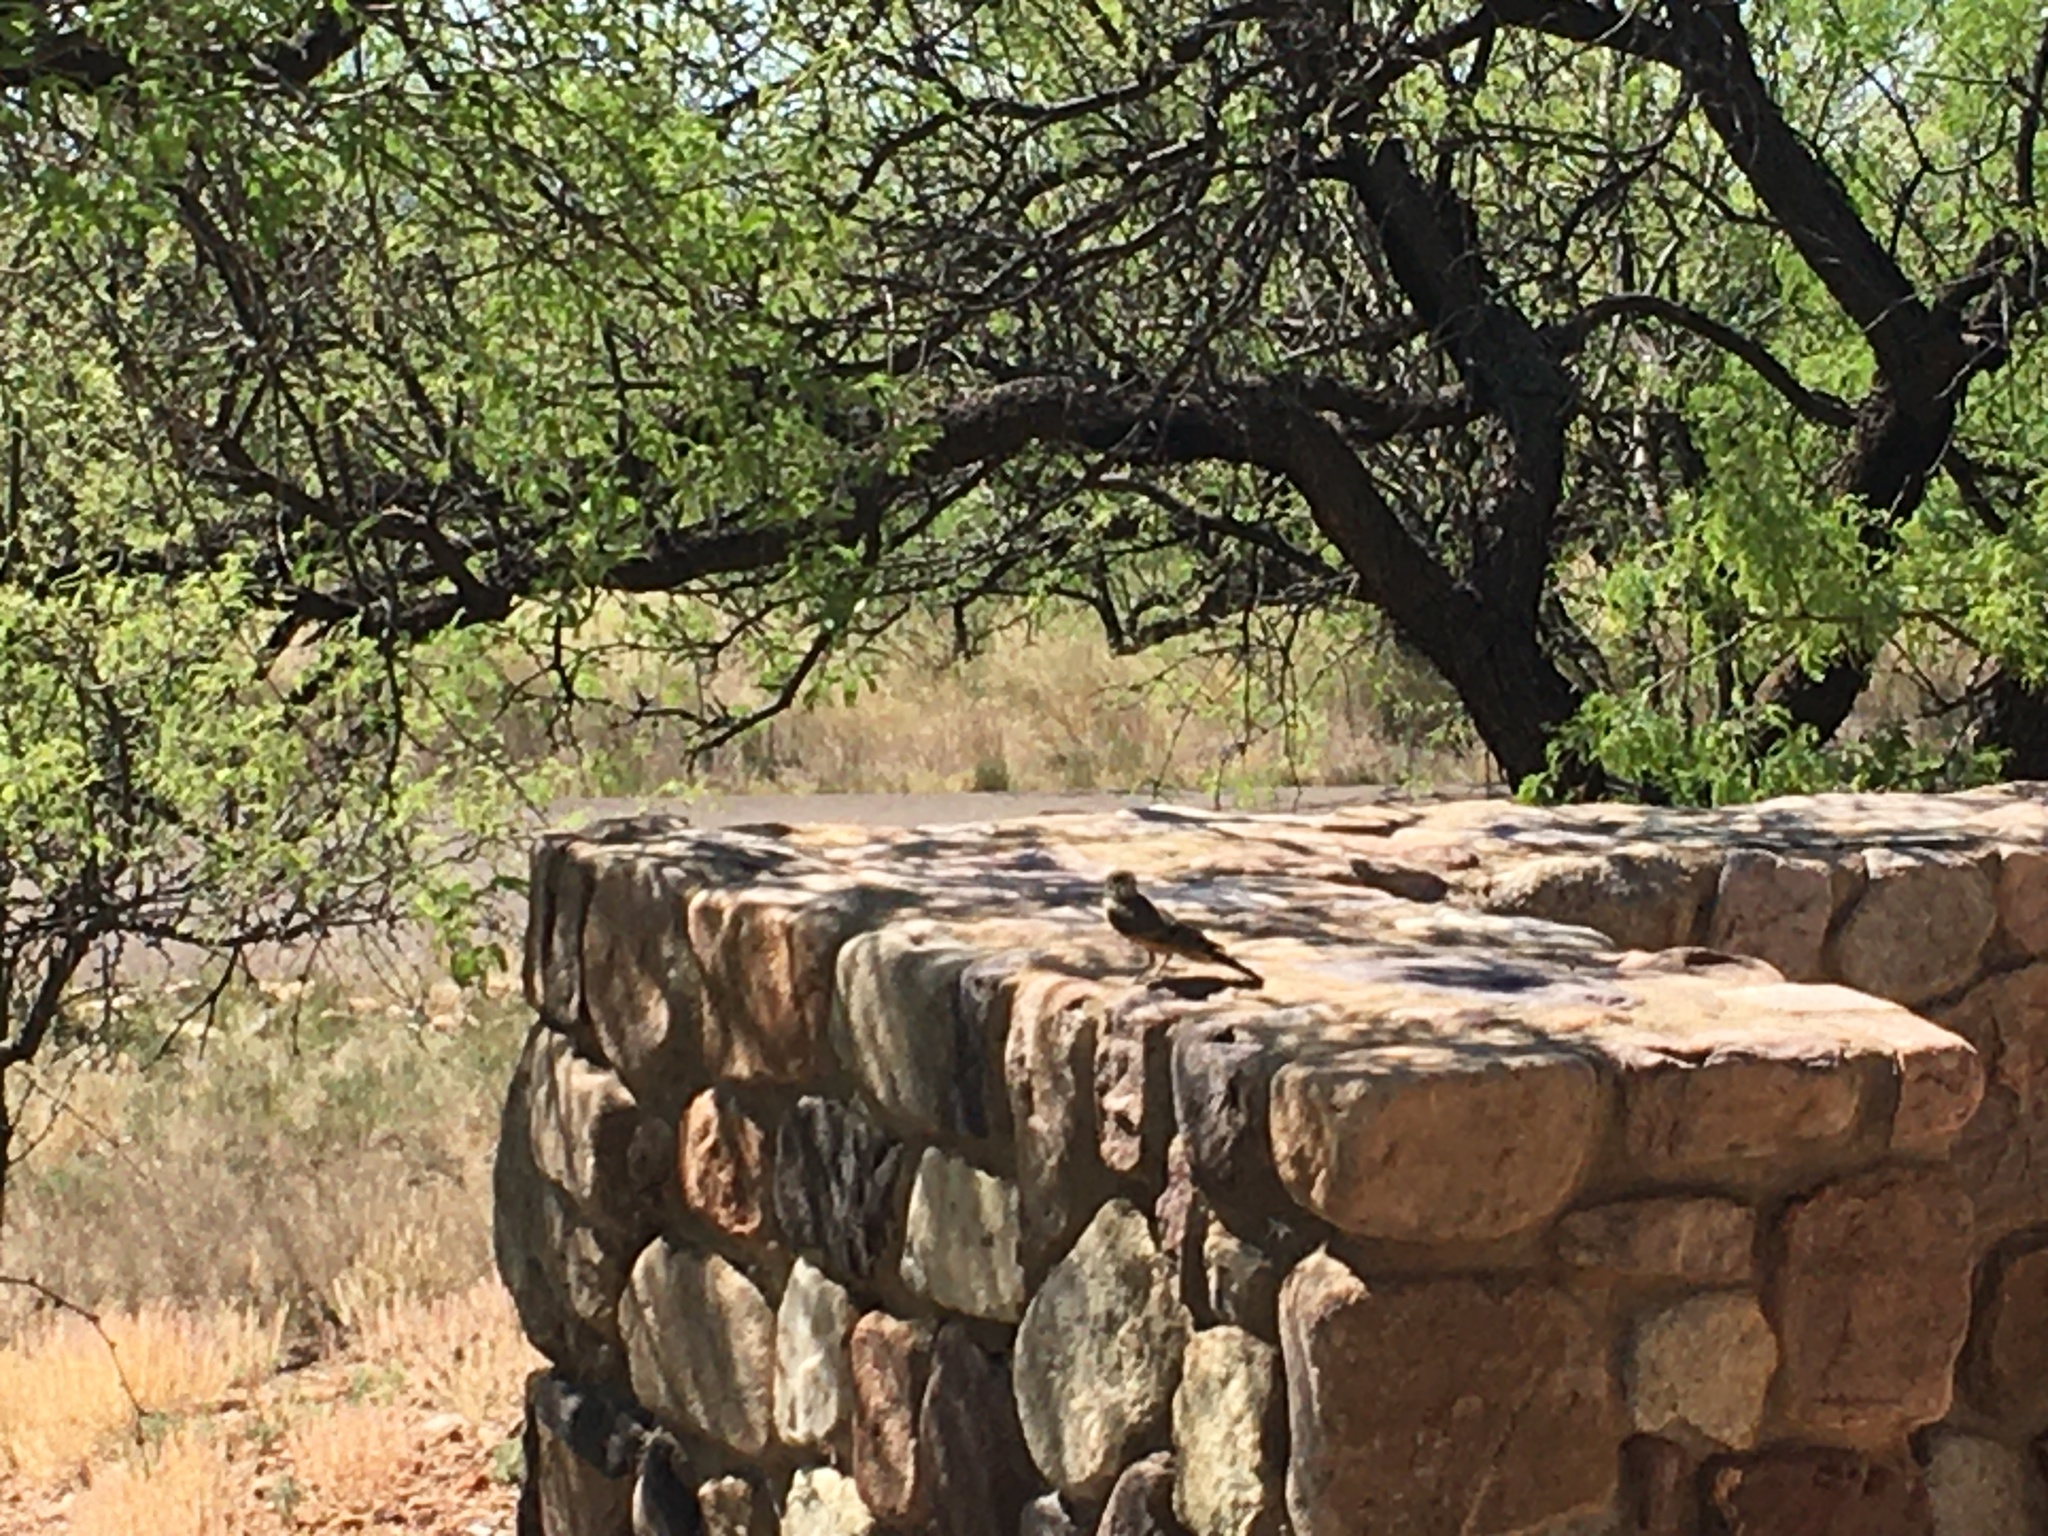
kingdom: Animalia
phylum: Chordata
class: Aves
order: Passeriformes
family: Tyrannidae
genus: Sayornis
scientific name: Sayornis saya
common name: Say's phoebe
